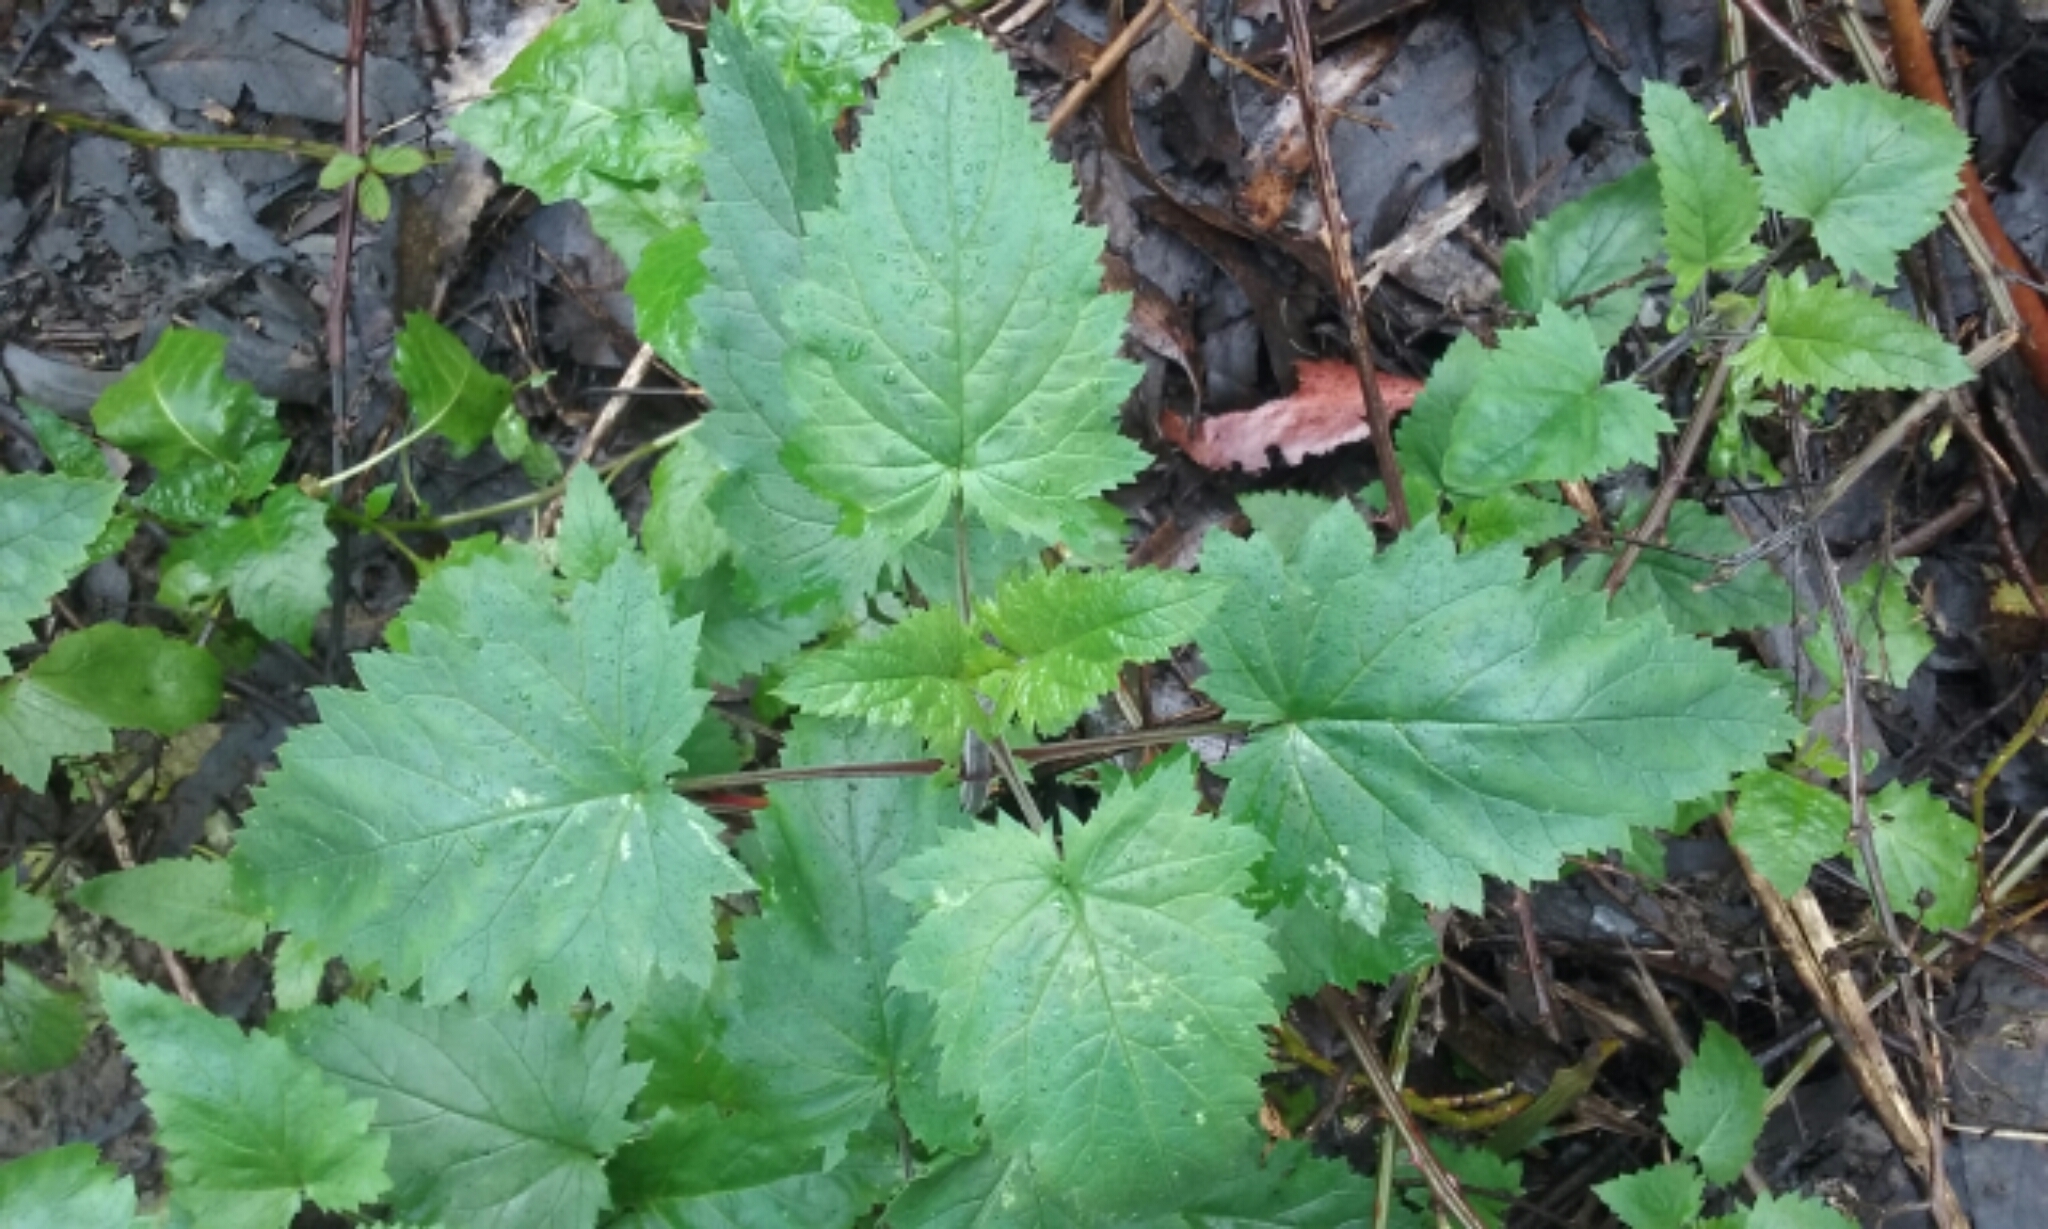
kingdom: Plantae
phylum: Tracheophyta
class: Magnoliopsida
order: Lamiales
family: Scrophulariaceae
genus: Scrophularia
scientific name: Scrophularia californica
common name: California figwort
